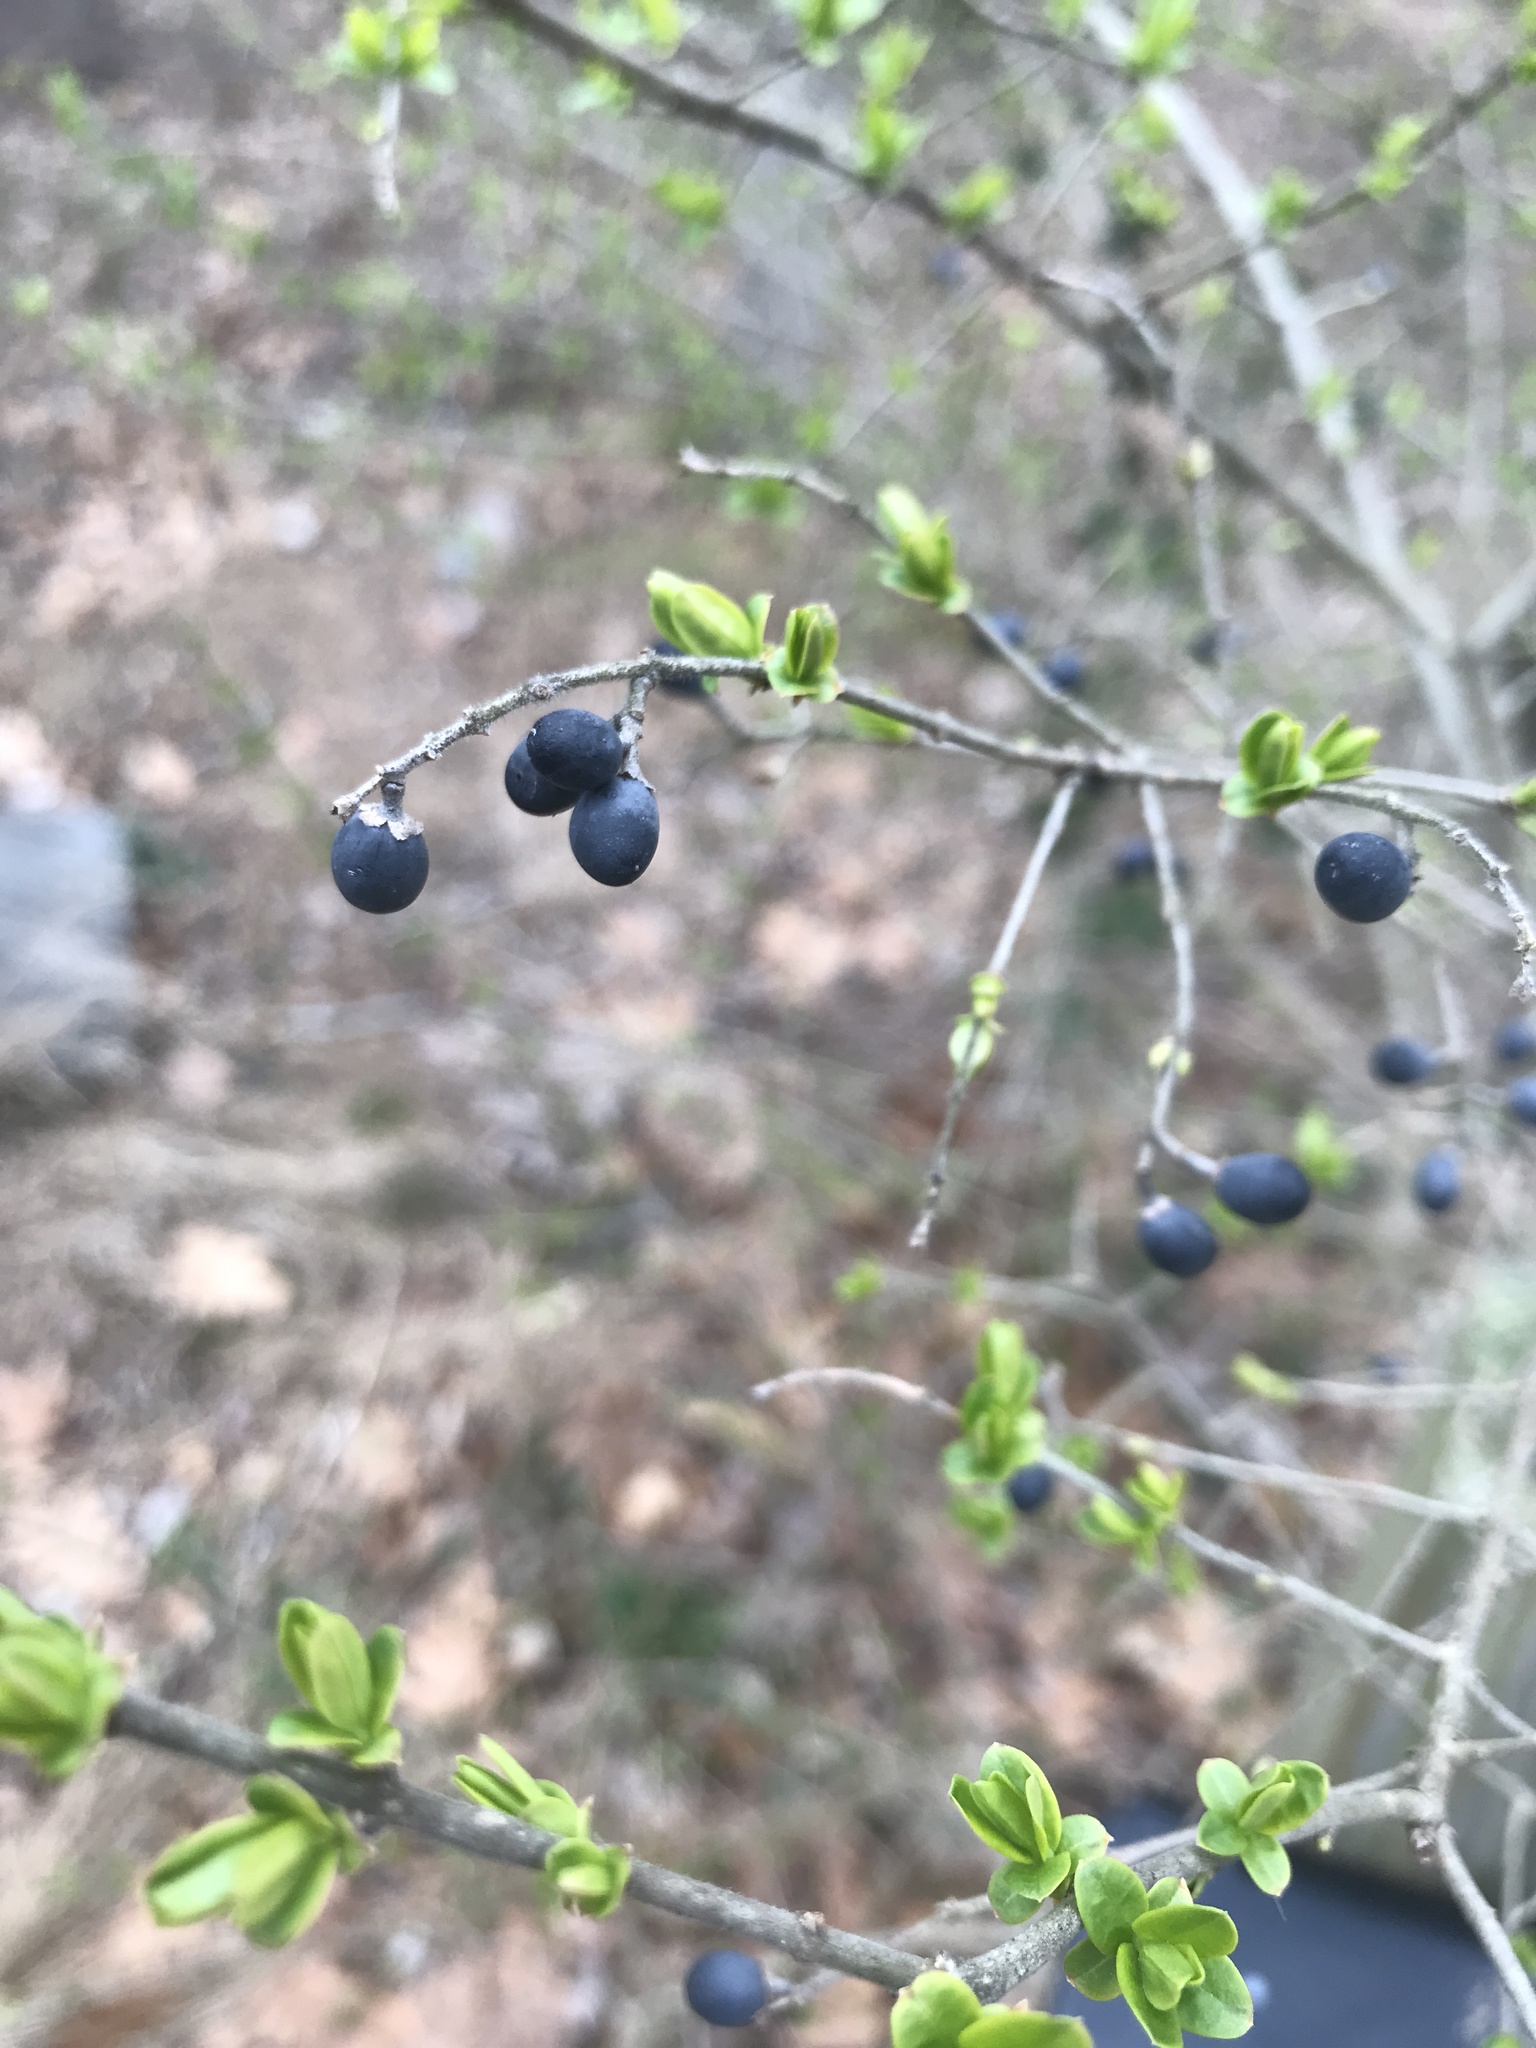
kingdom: Plantae
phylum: Tracheophyta
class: Magnoliopsida
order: Lamiales
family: Oleaceae
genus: Ligustrum
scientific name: Ligustrum
